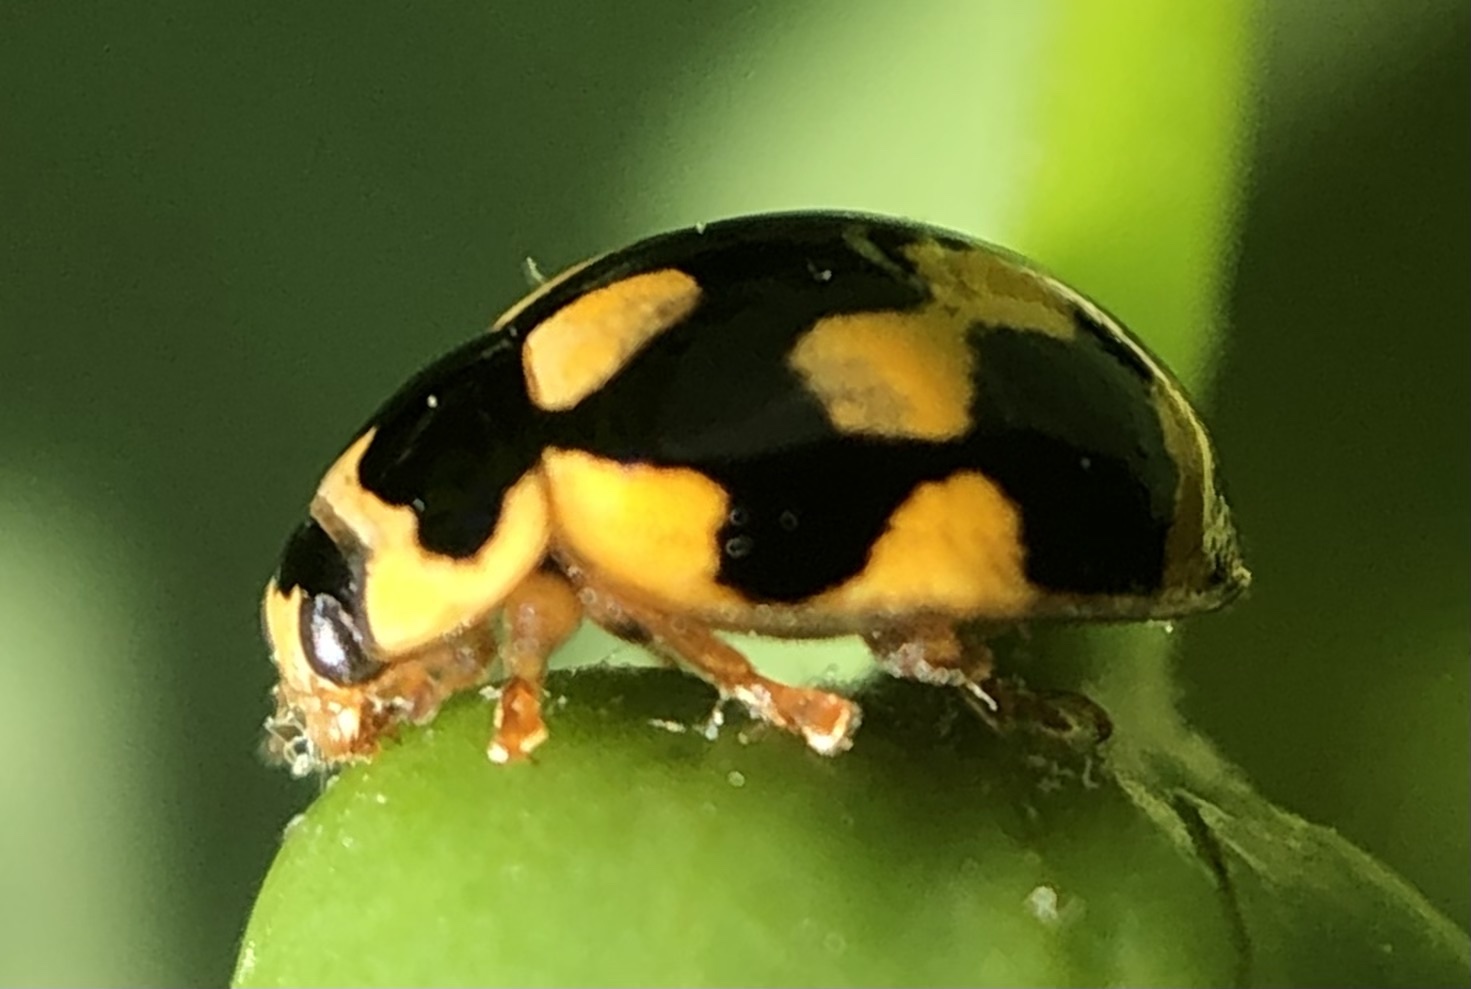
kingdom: Animalia
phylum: Arthropoda
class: Insecta
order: Coleoptera
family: Coccinellidae
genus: Propylaea
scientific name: Propylaea quatuordecimpunctata
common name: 14-spotted ladybird beetle
